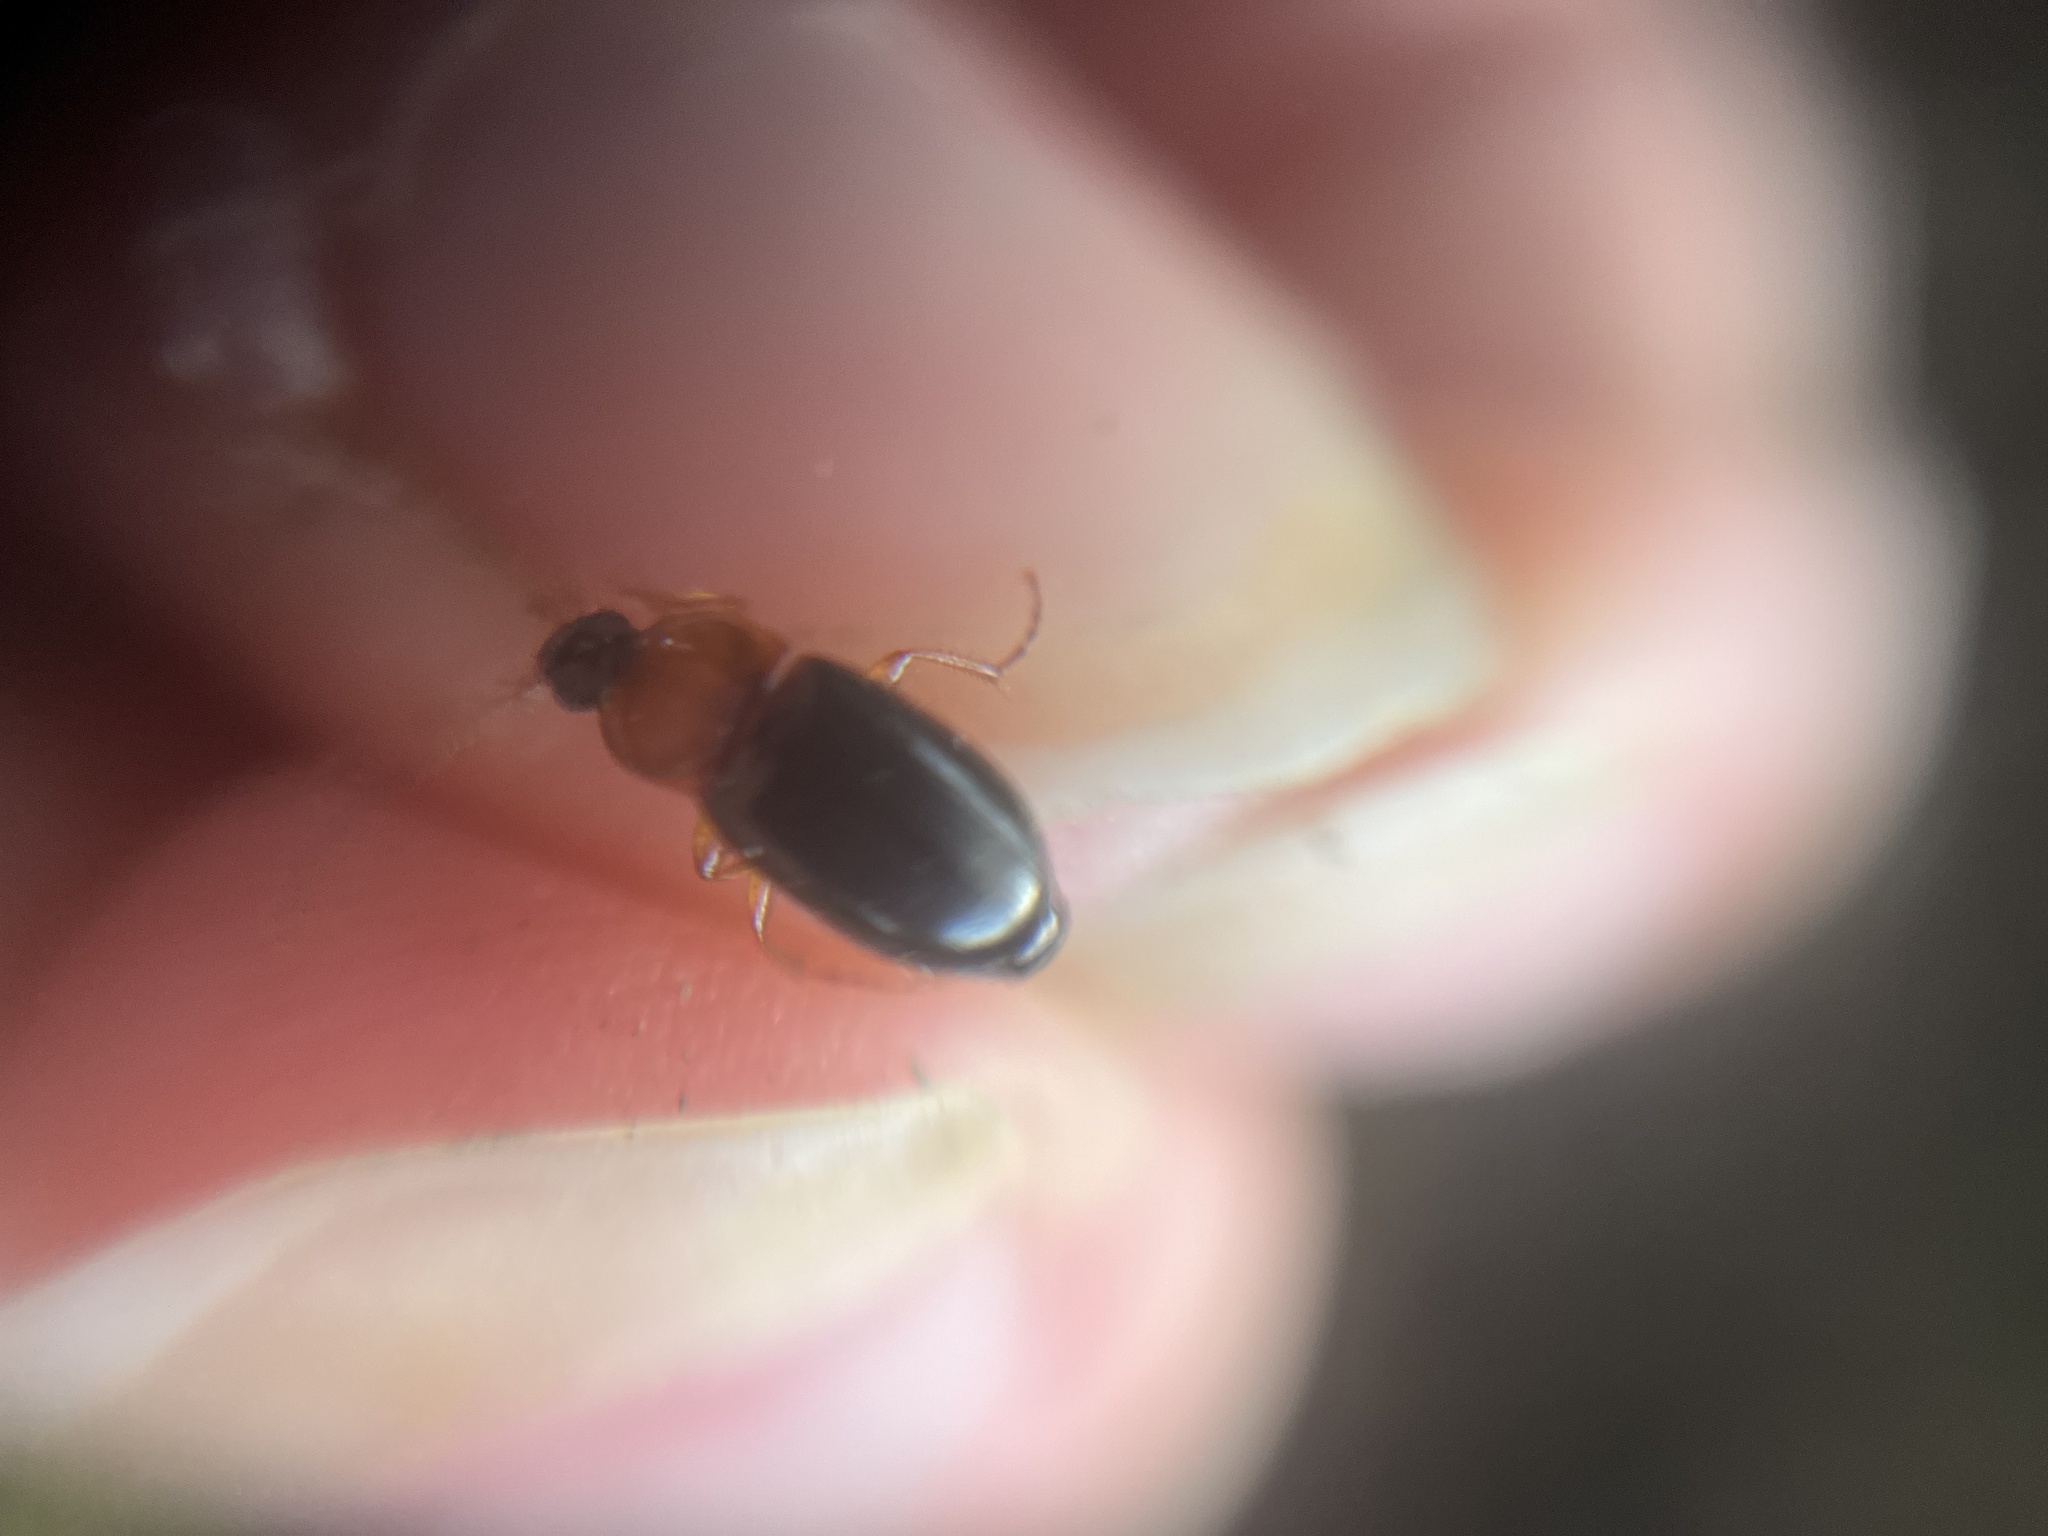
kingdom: Animalia
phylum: Arthropoda
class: Insecta
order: Coleoptera
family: Carabidae
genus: Calathus
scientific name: Calathus melanocephalus
